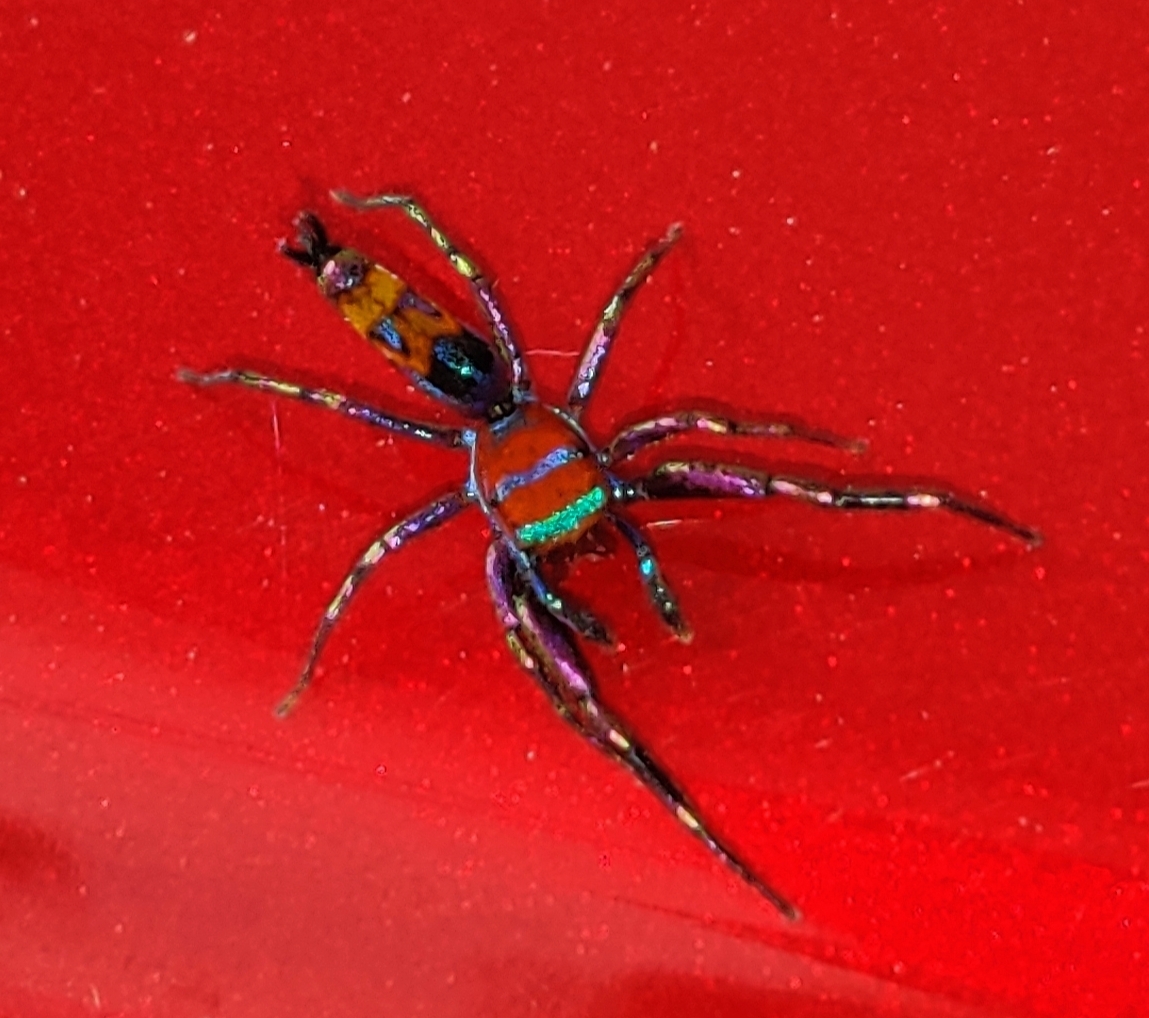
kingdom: Animalia
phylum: Arthropoda
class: Arachnida
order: Araneae
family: Salticidae
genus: Chrysilla
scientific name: Chrysilla volupe
